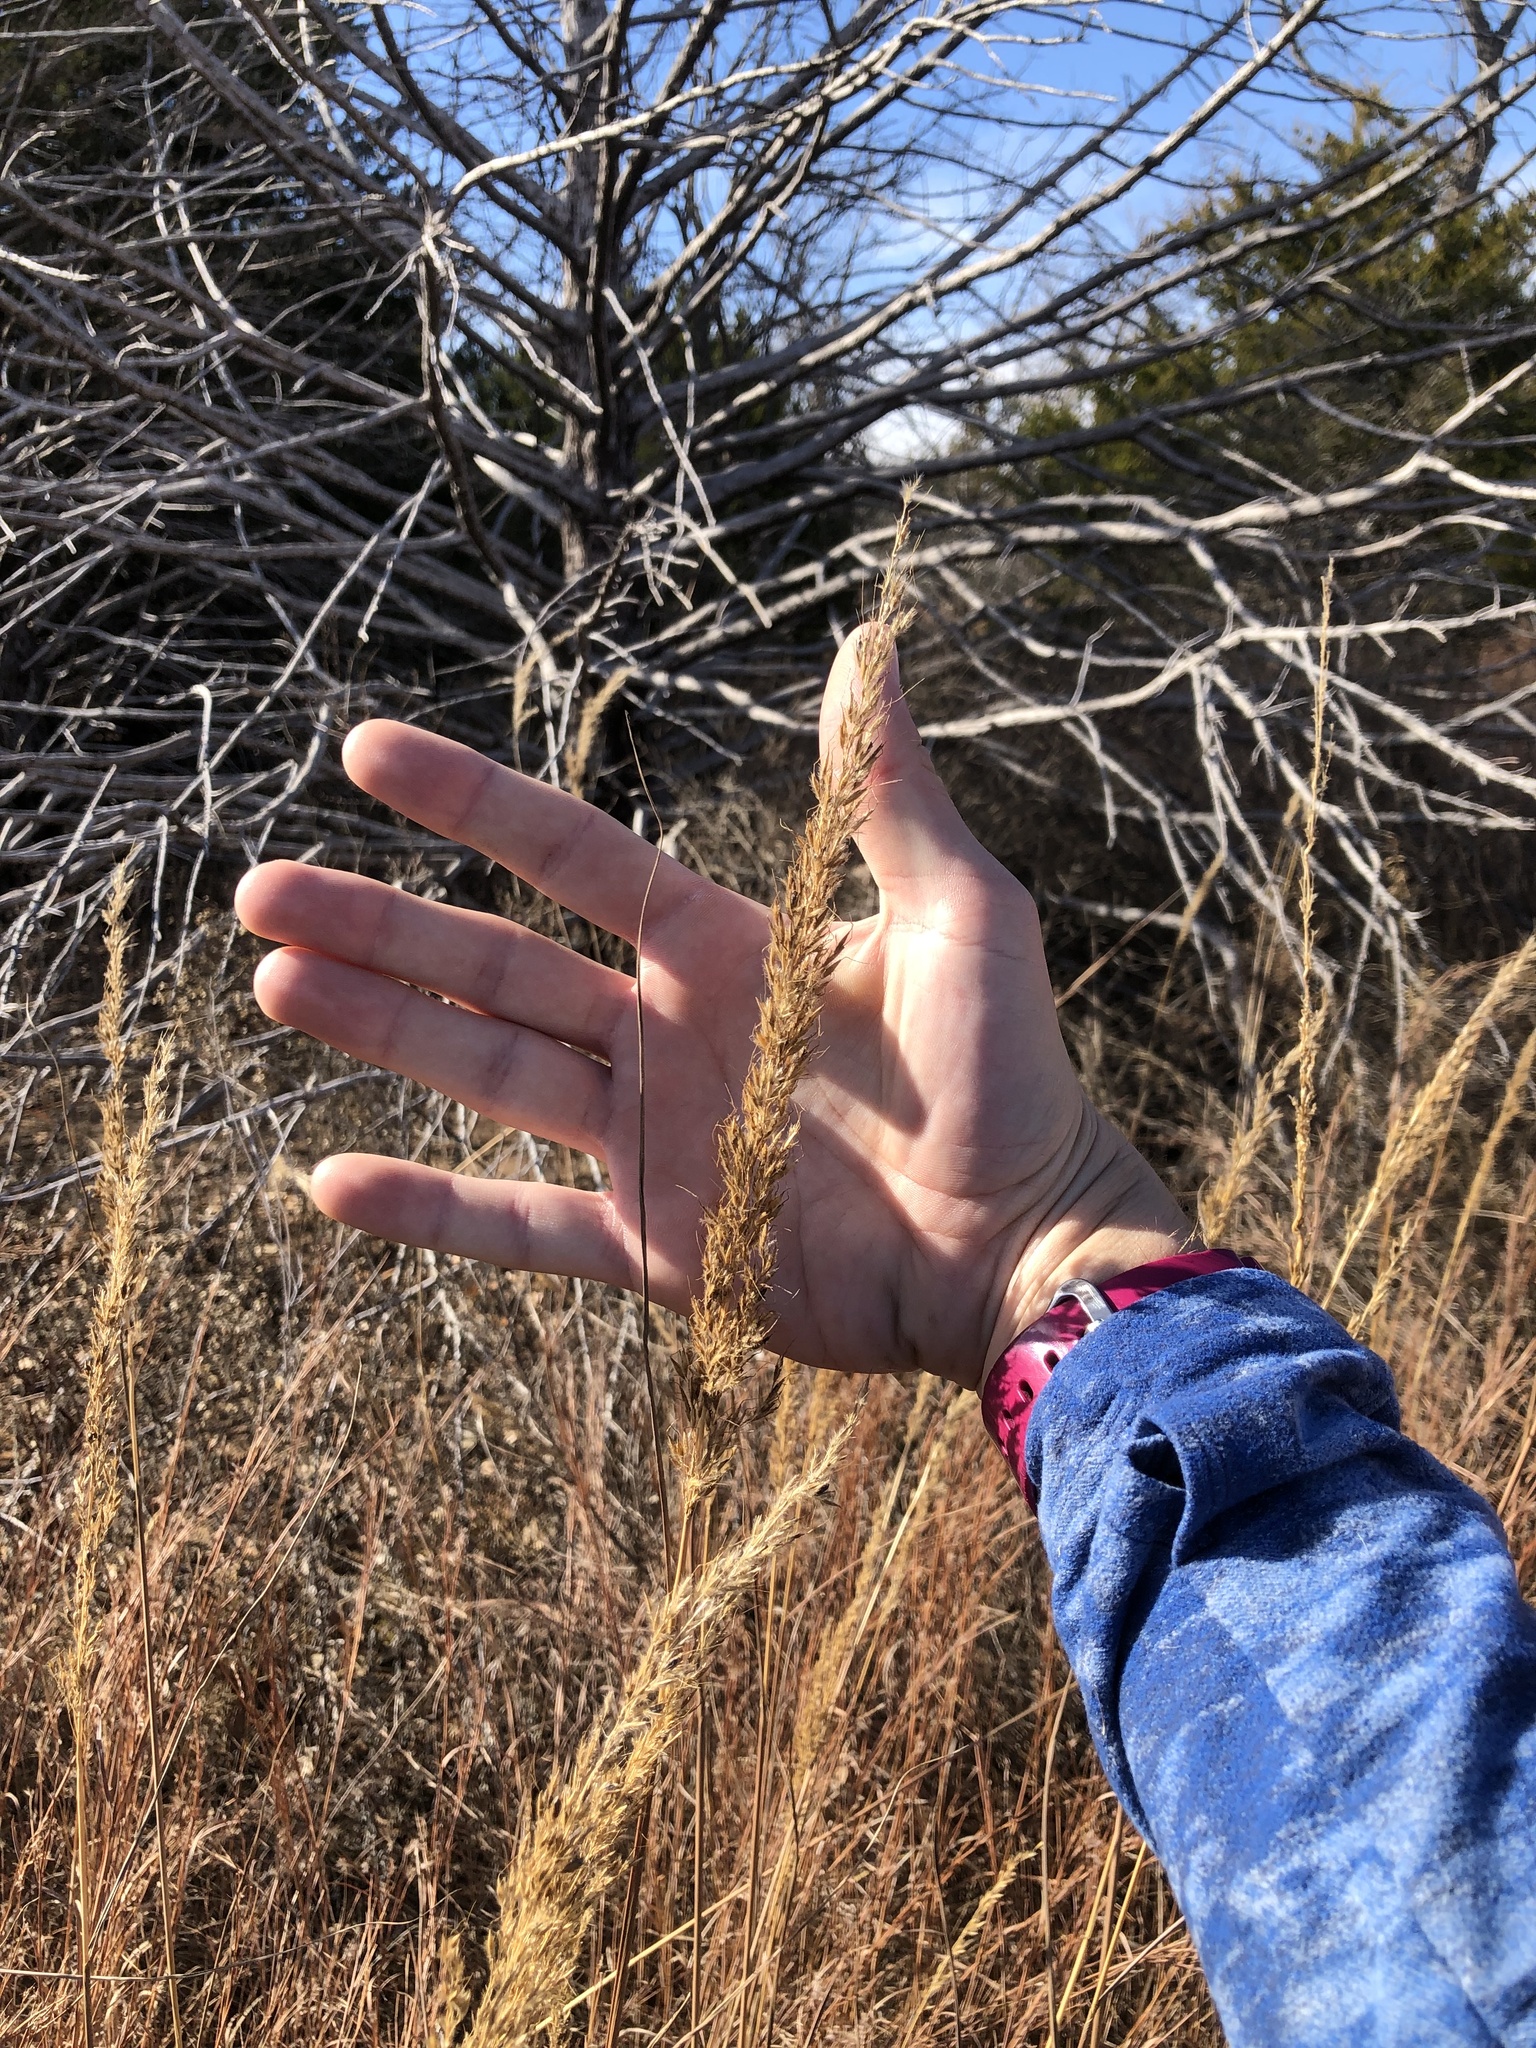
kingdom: Plantae
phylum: Tracheophyta
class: Liliopsida
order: Poales
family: Poaceae
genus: Sorghastrum
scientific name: Sorghastrum nutans
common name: Indian grass
